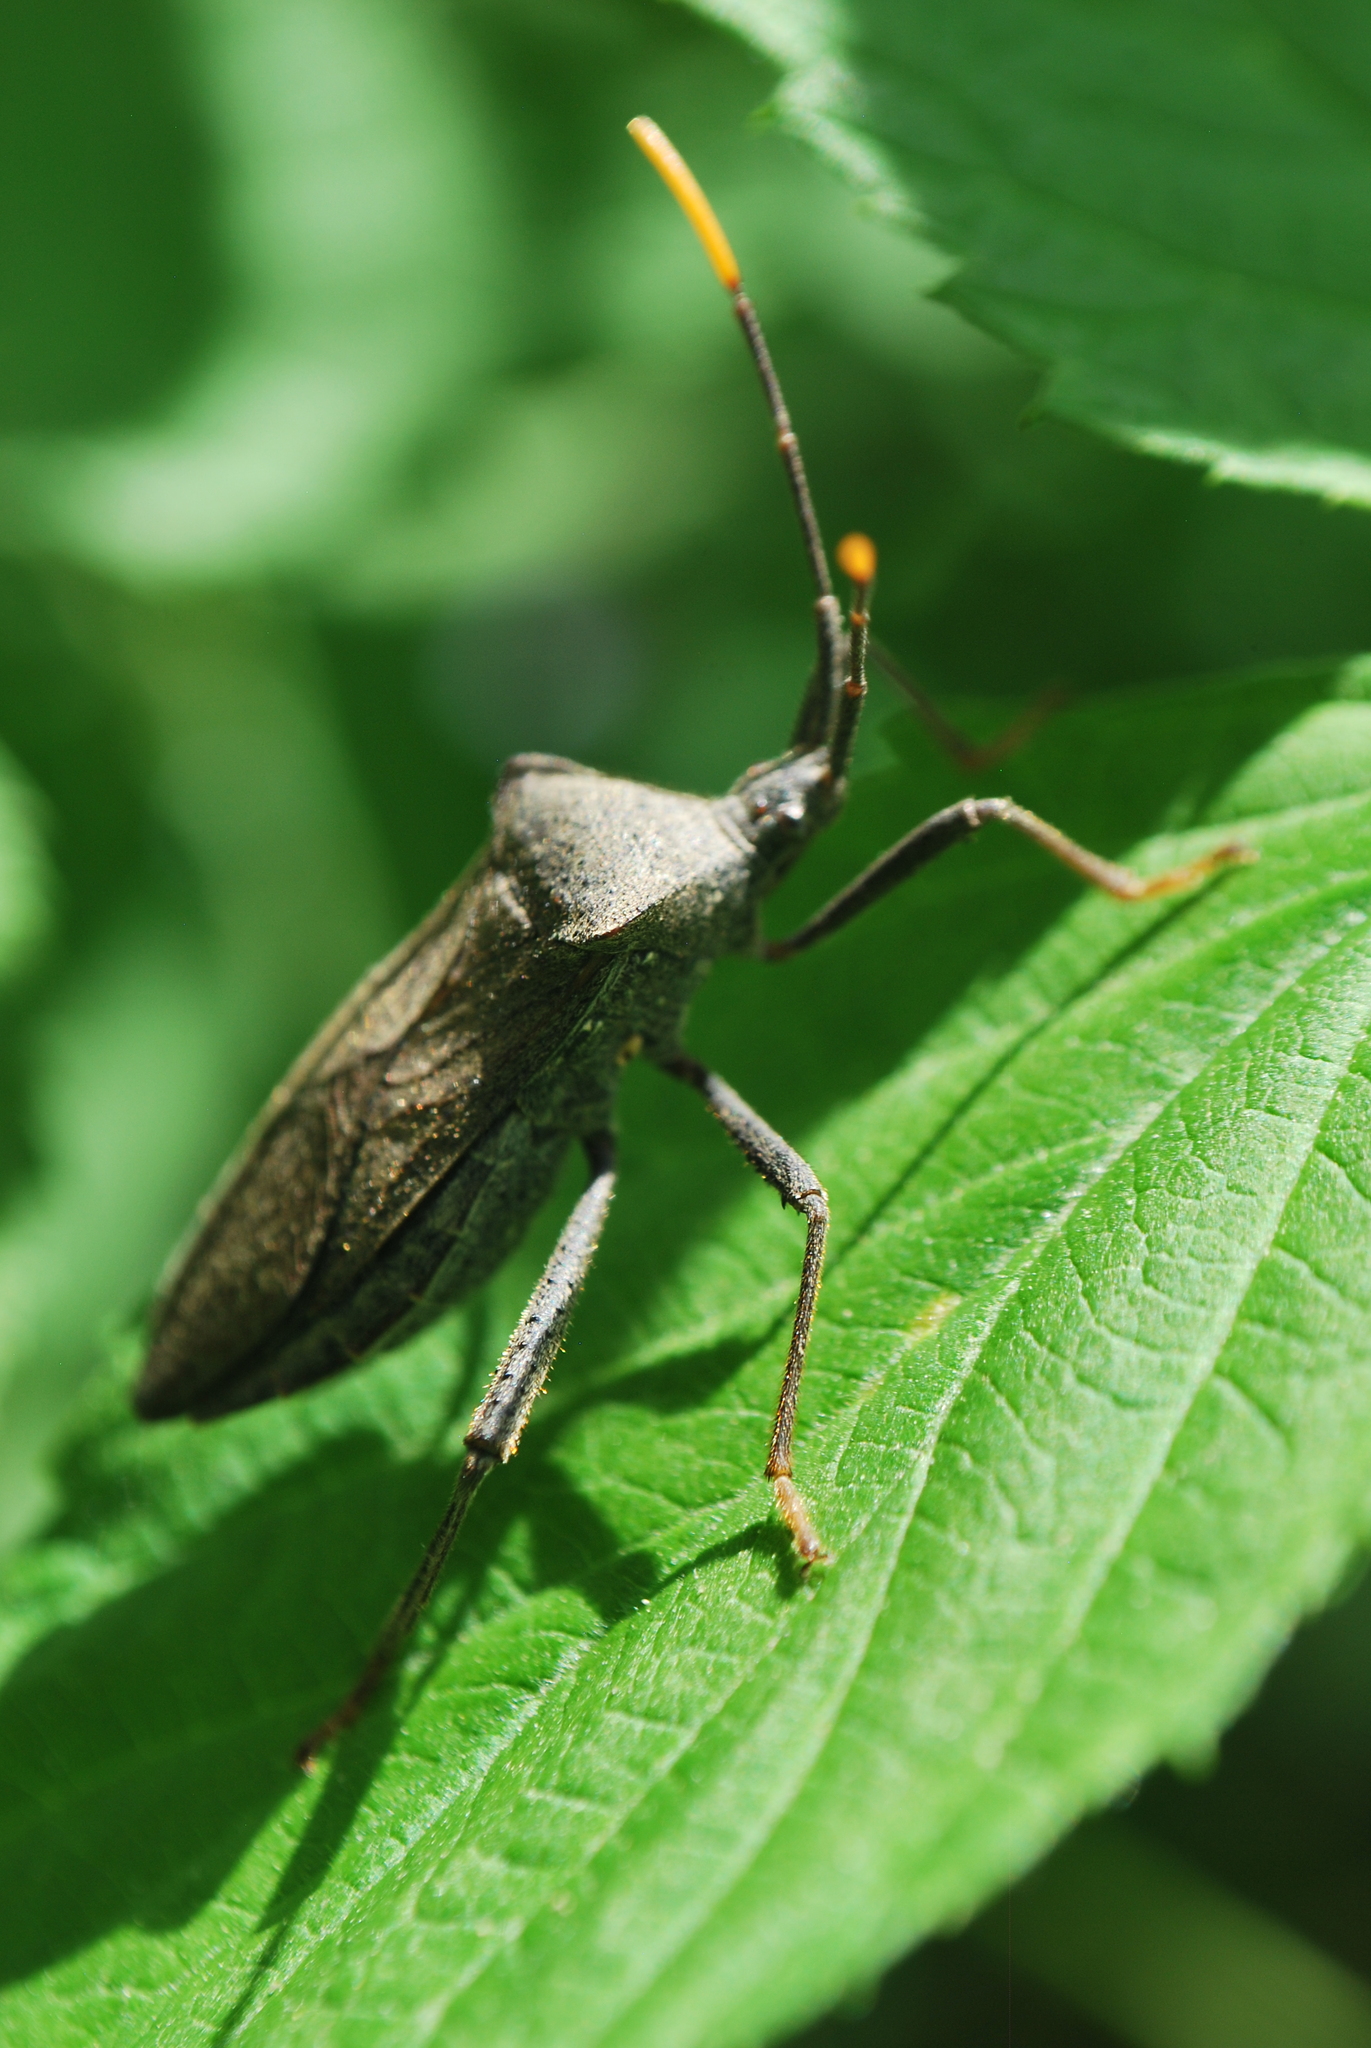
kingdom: Animalia
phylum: Arthropoda
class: Insecta
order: Hemiptera
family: Coreidae
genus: Acanthocephala
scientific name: Acanthocephala terminalis
